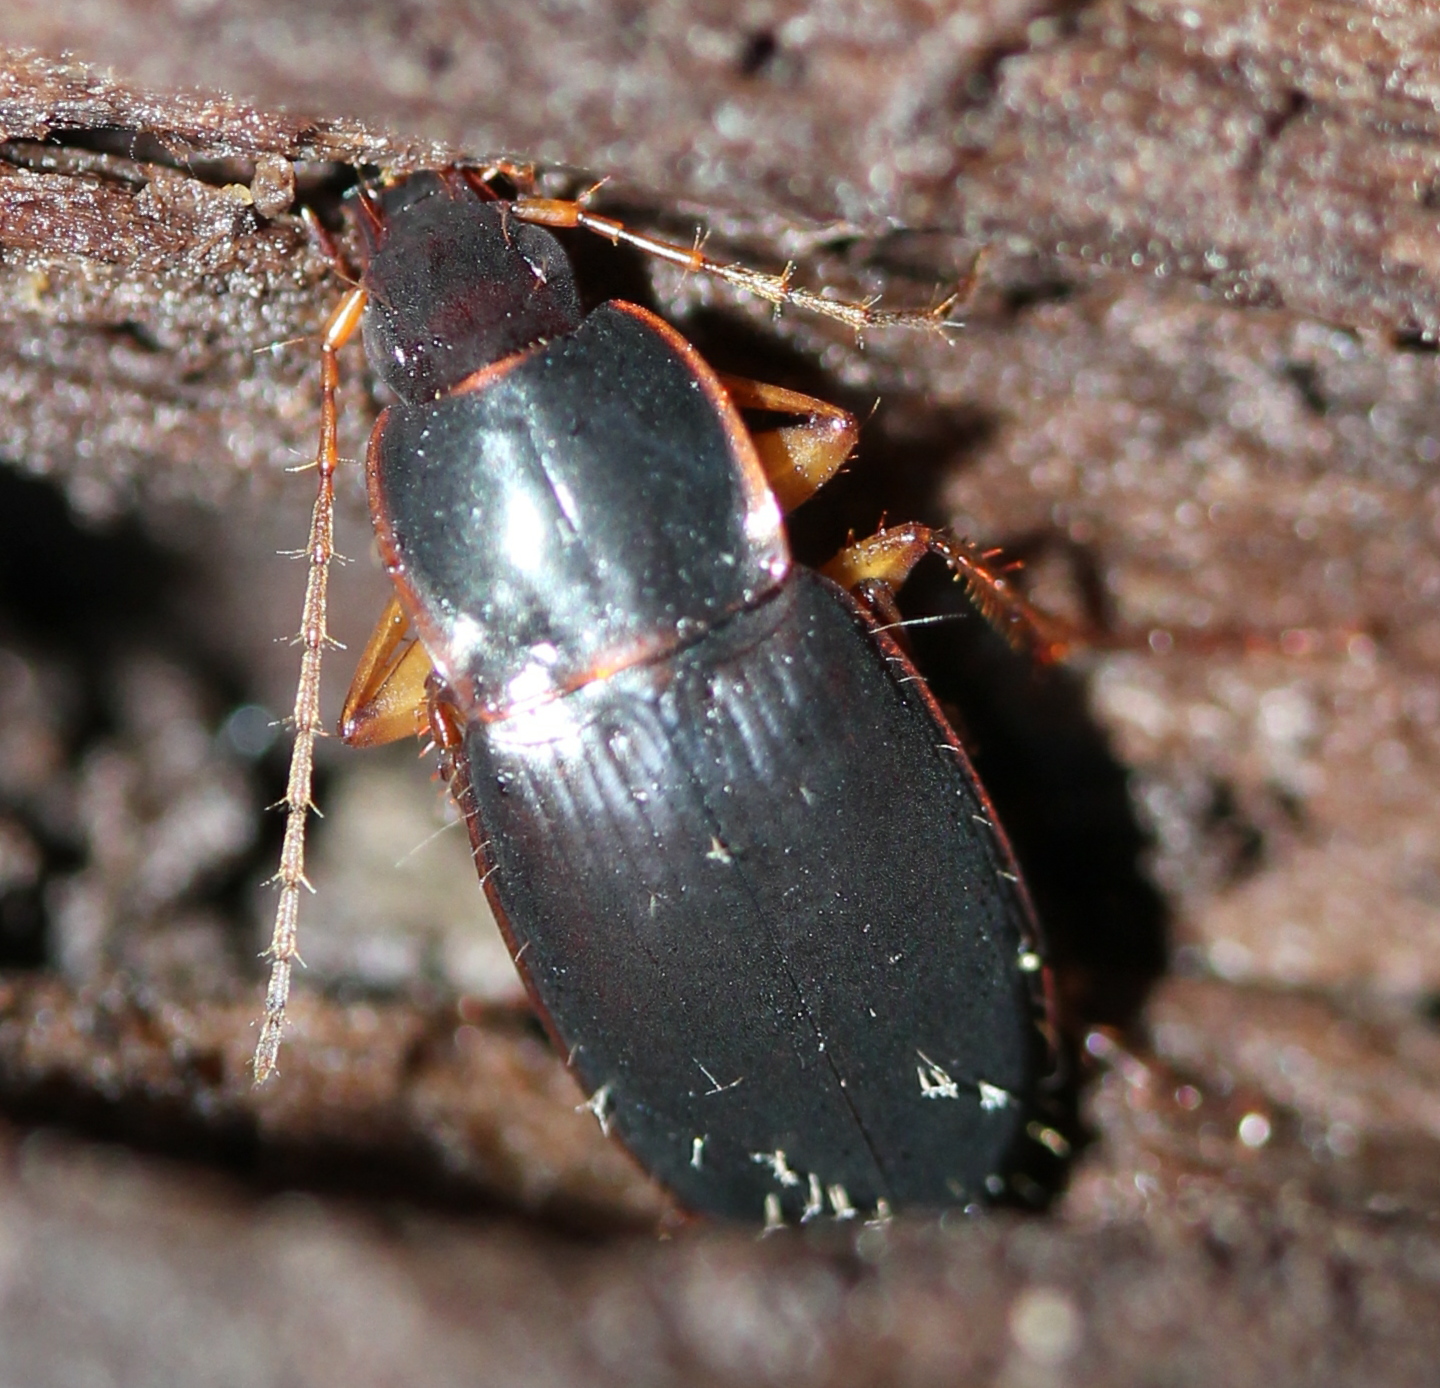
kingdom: Animalia
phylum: Arthropoda
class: Insecta
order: Coleoptera
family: Carabidae
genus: Calathus
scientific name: Calathus opaculus
